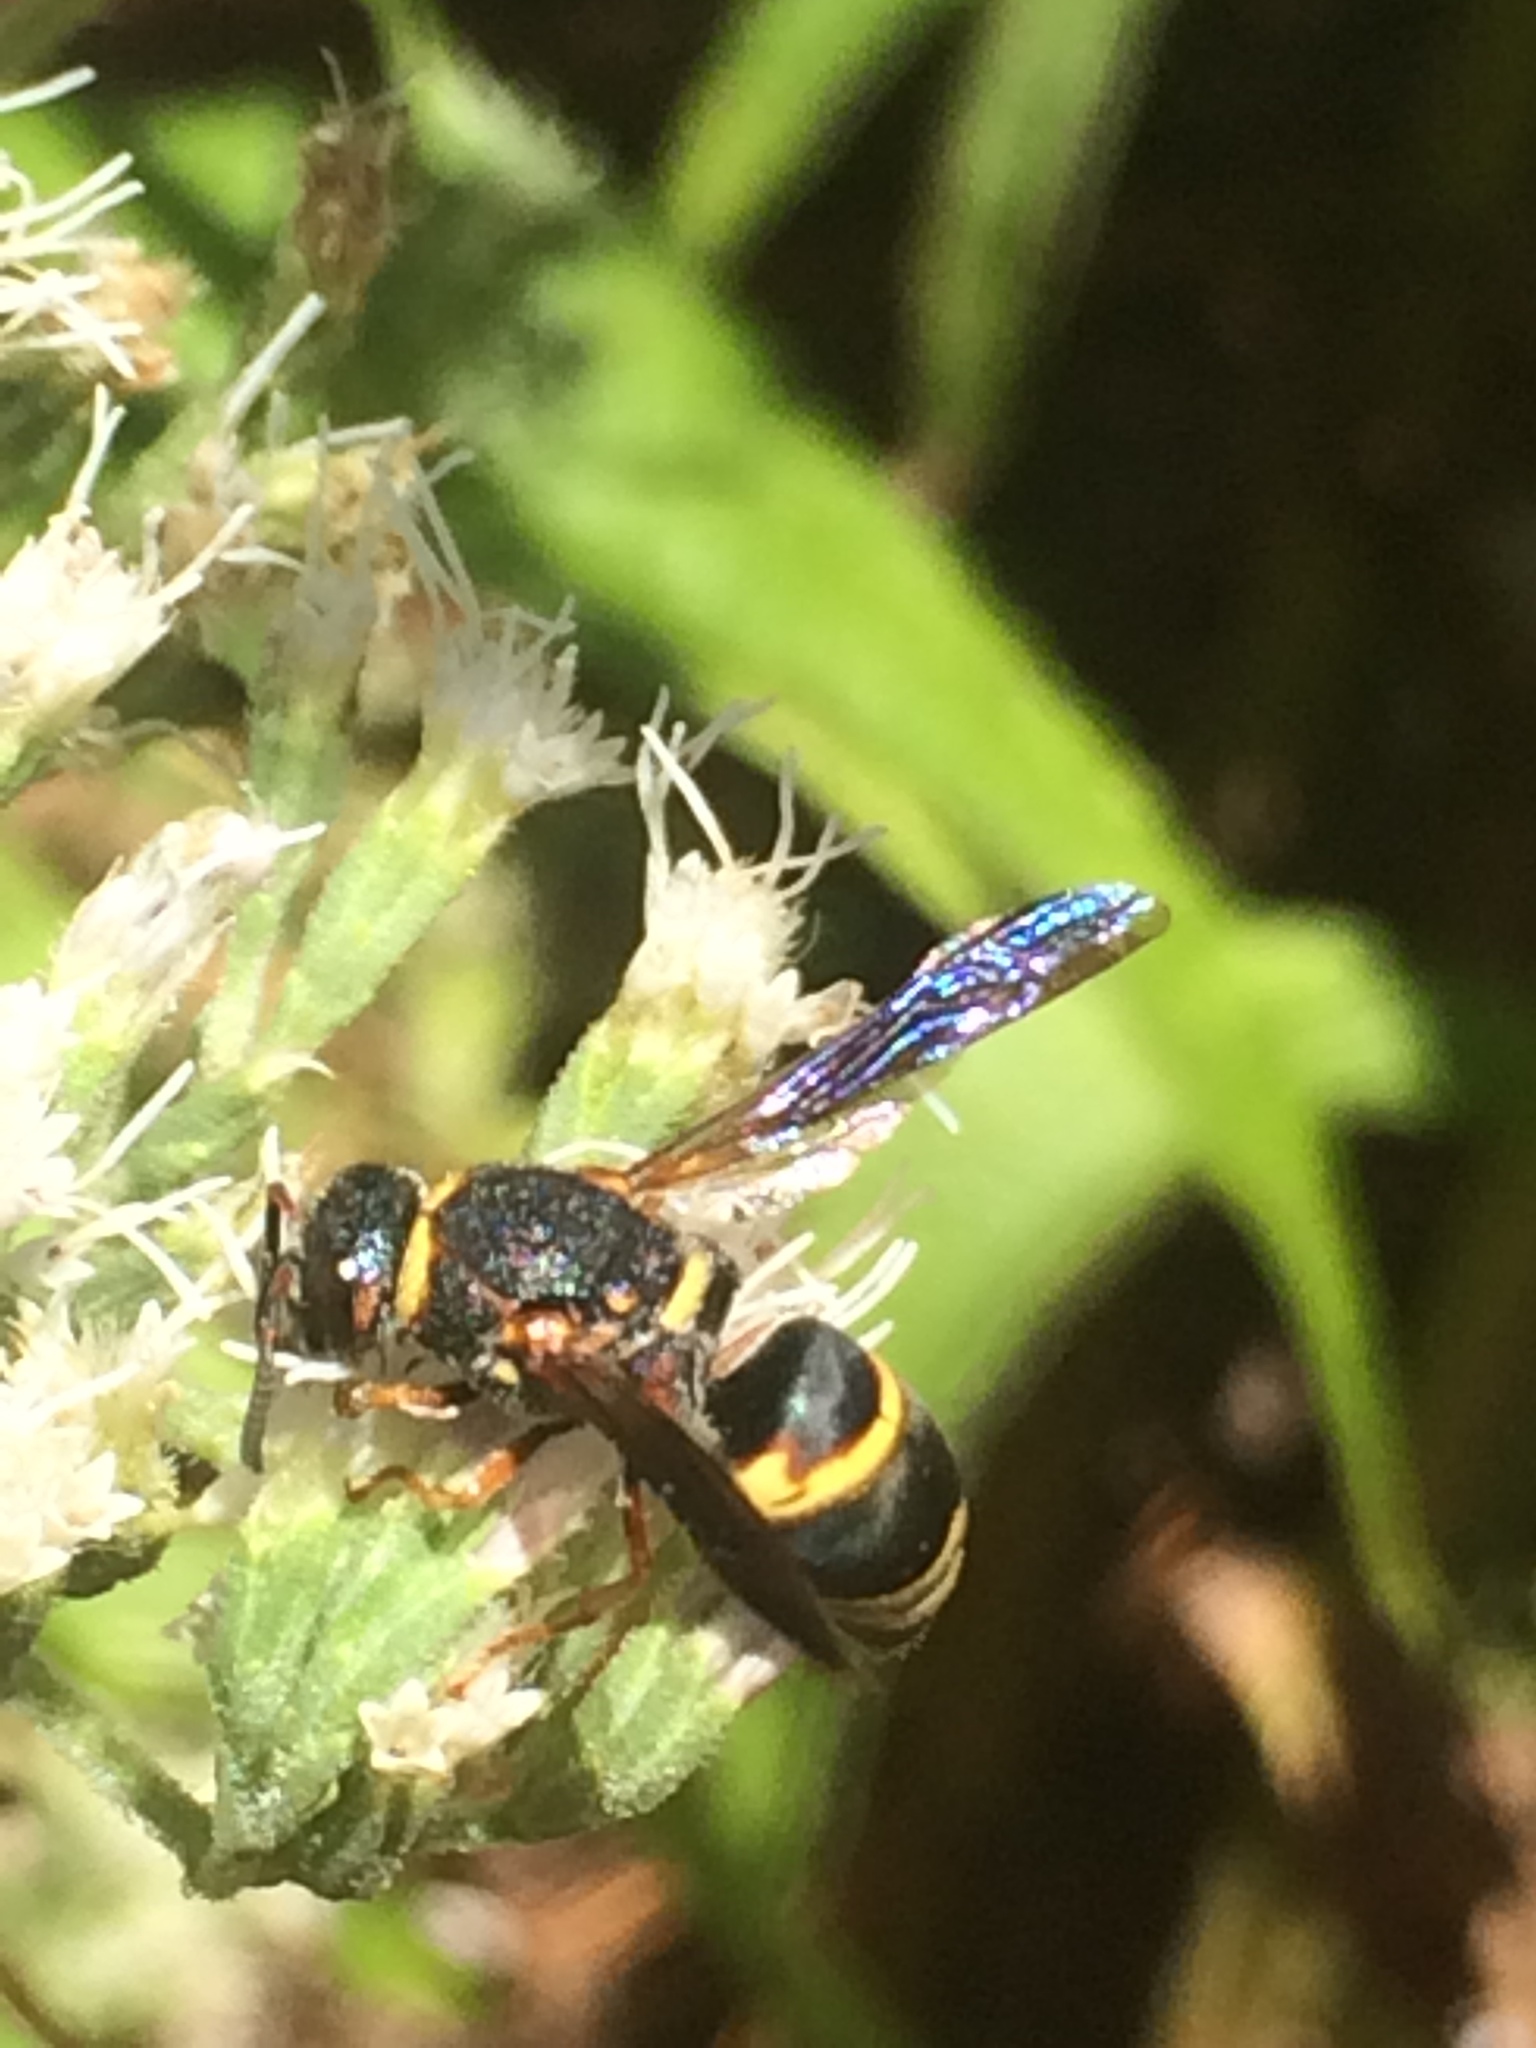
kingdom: Animalia
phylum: Arthropoda
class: Insecta
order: Hymenoptera
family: Eumenidae
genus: Euodynerus
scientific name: Euodynerus hidalgo
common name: Wasp
